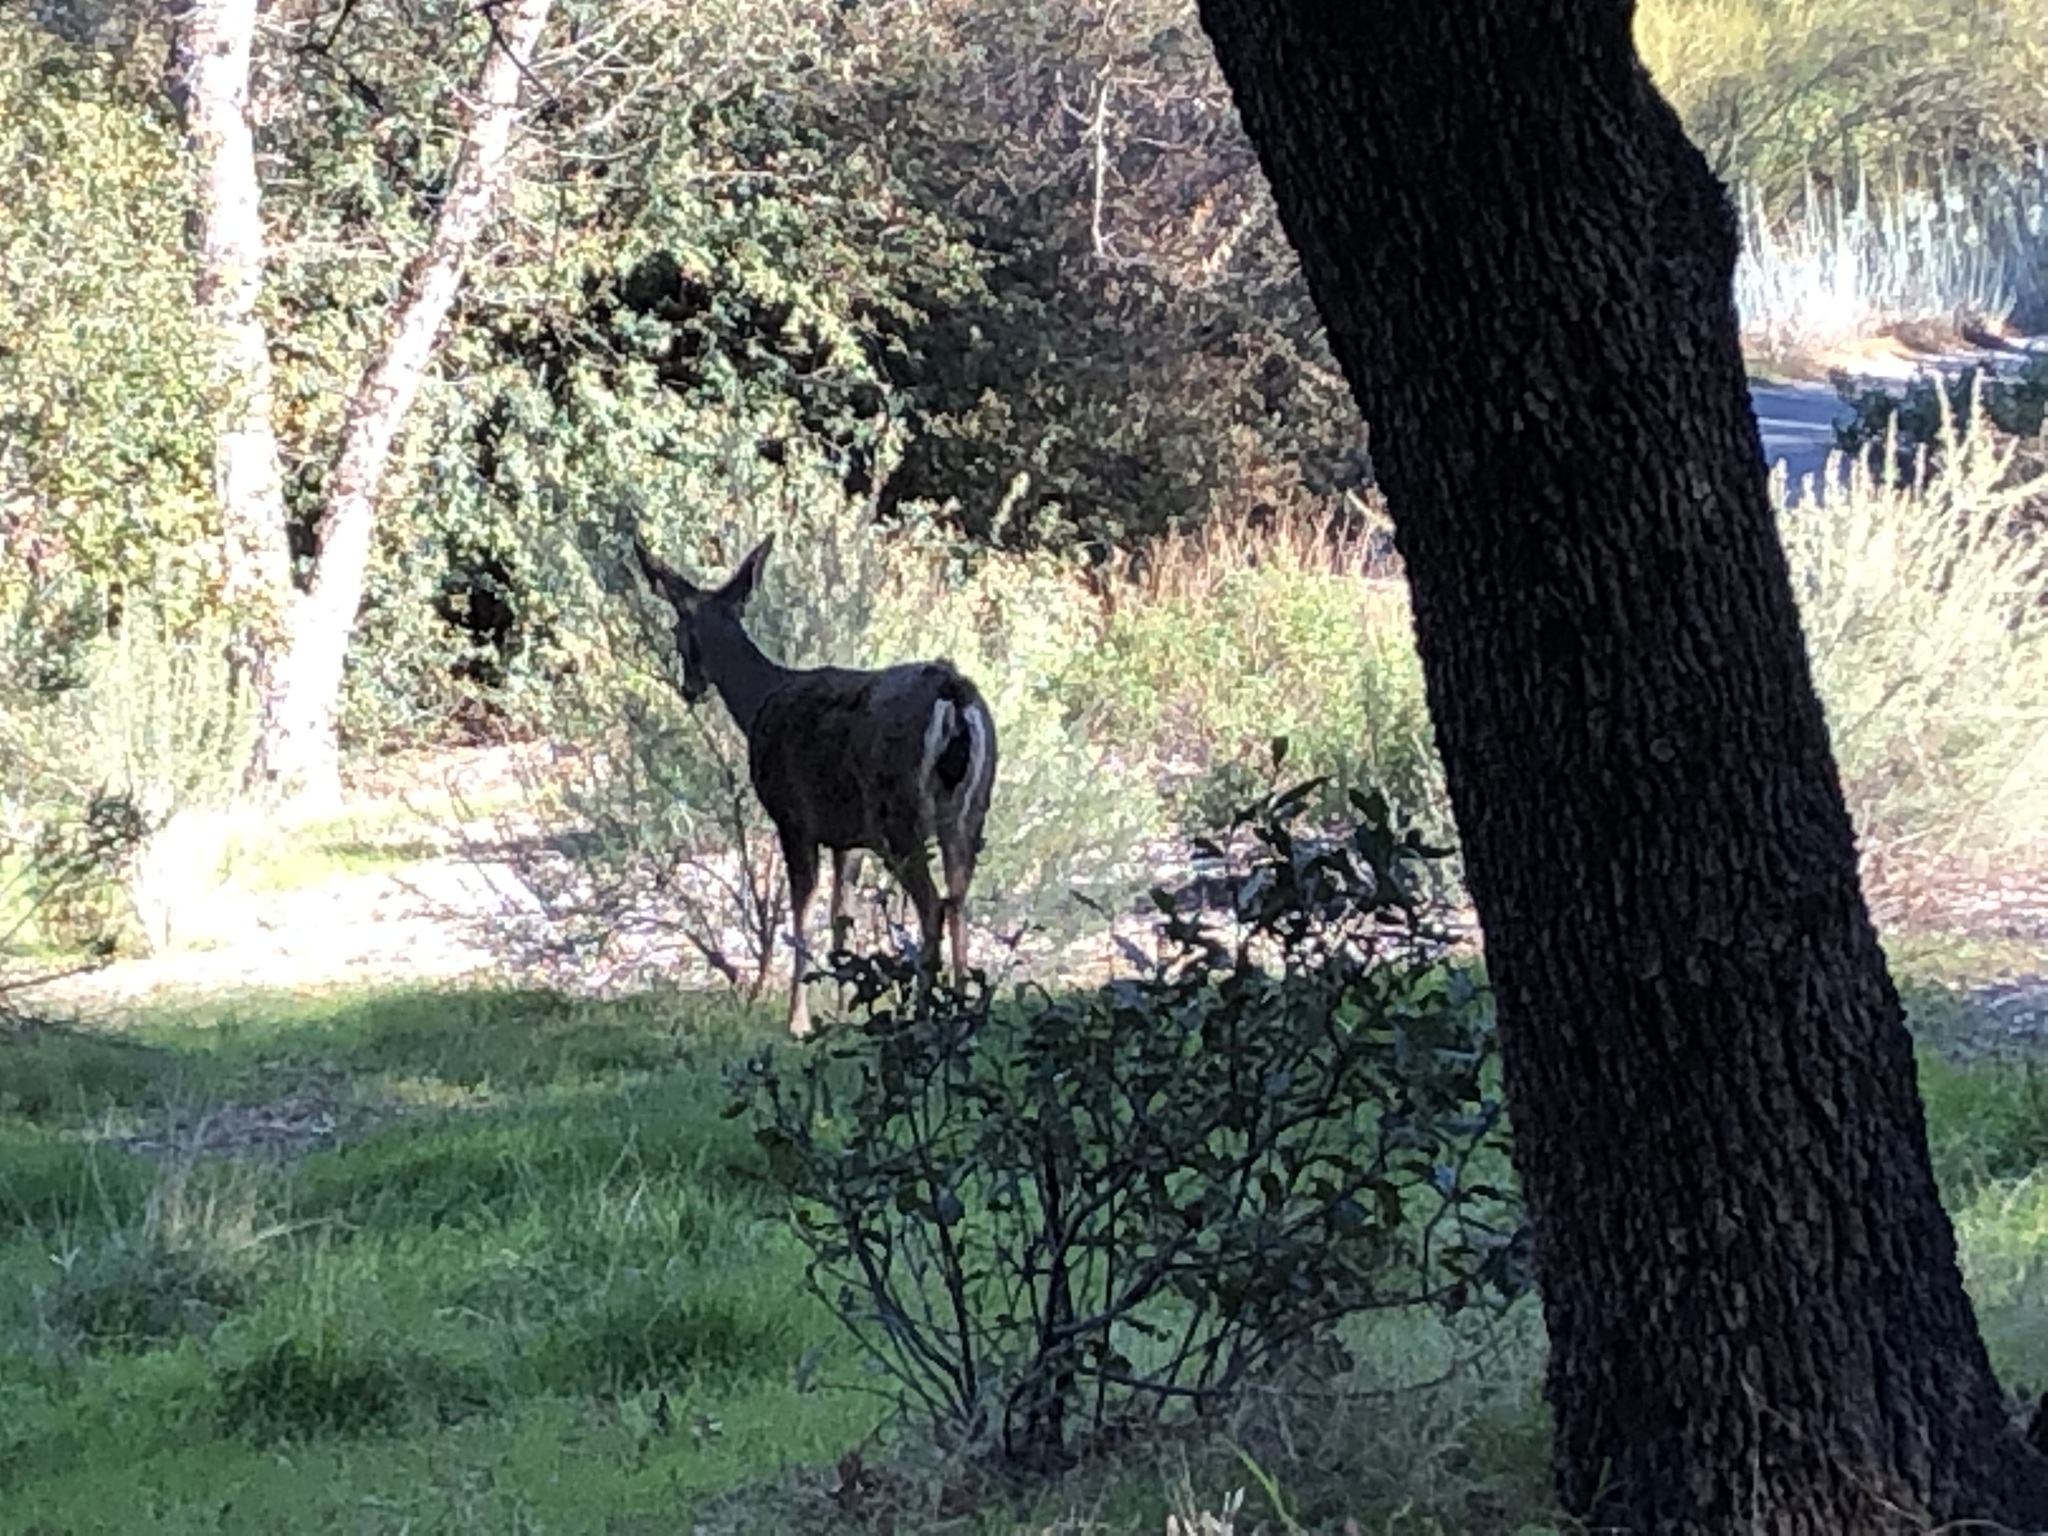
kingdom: Animalia
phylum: Chordata
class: Mammalia
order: Artiodactyla
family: Cervidae
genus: Odocoileus
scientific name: Odocoileus hemionus
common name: Mule deer
